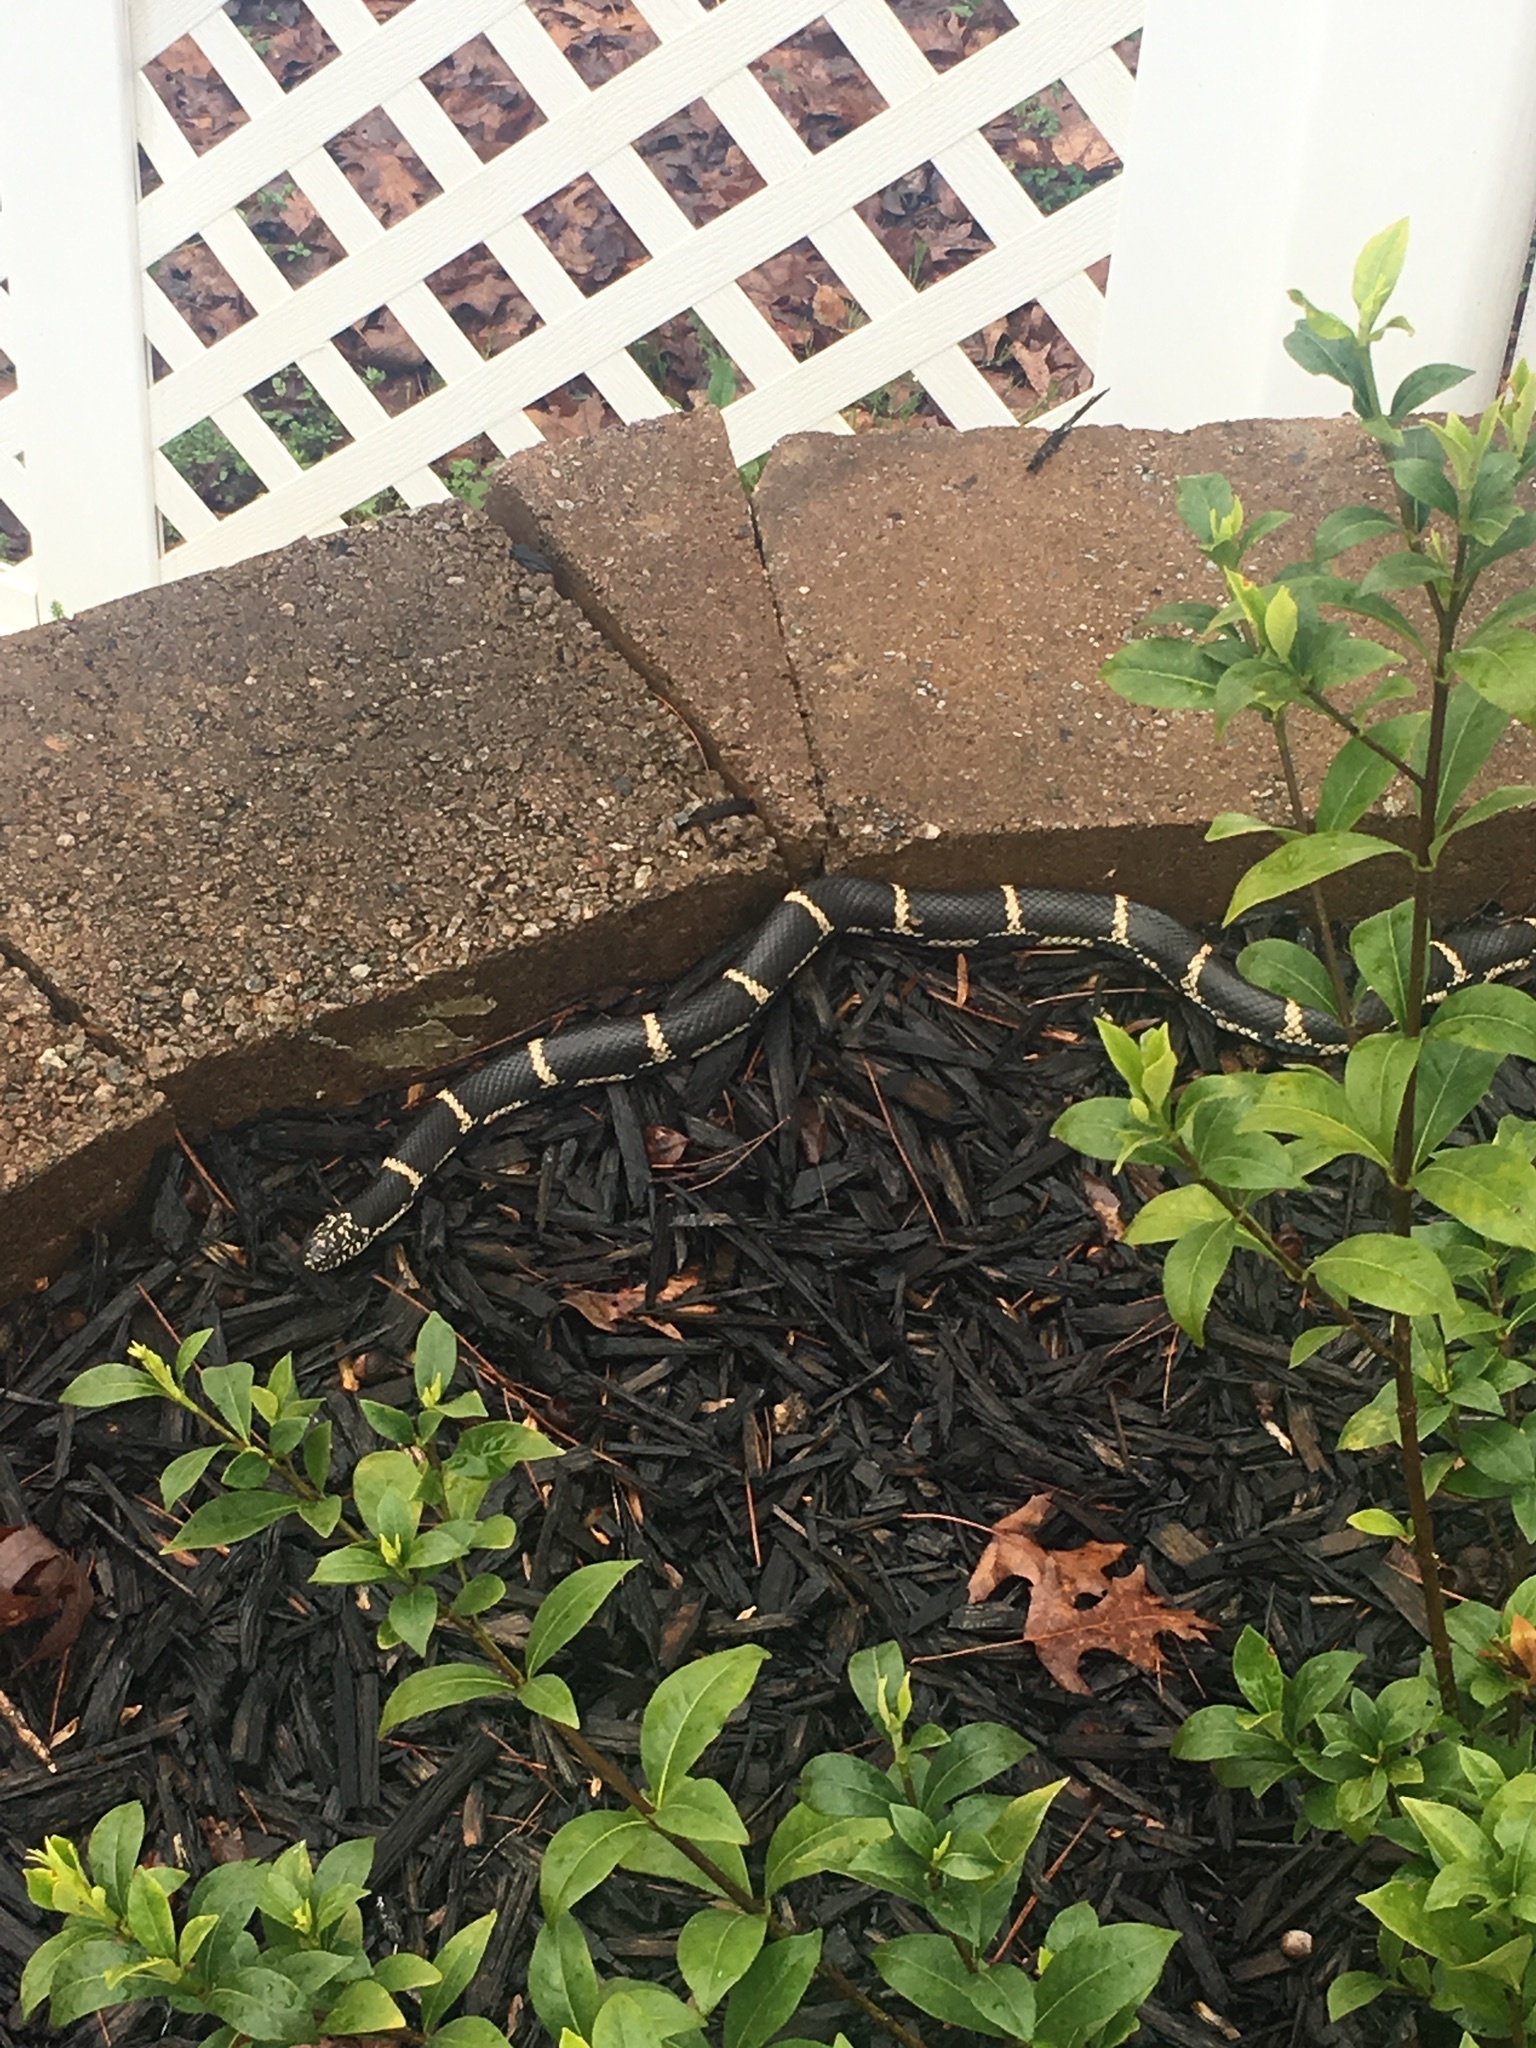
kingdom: Animalia
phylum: Chordata
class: Squamata
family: Colubridae
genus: Lampropeltis
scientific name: Lampropeltis getula
